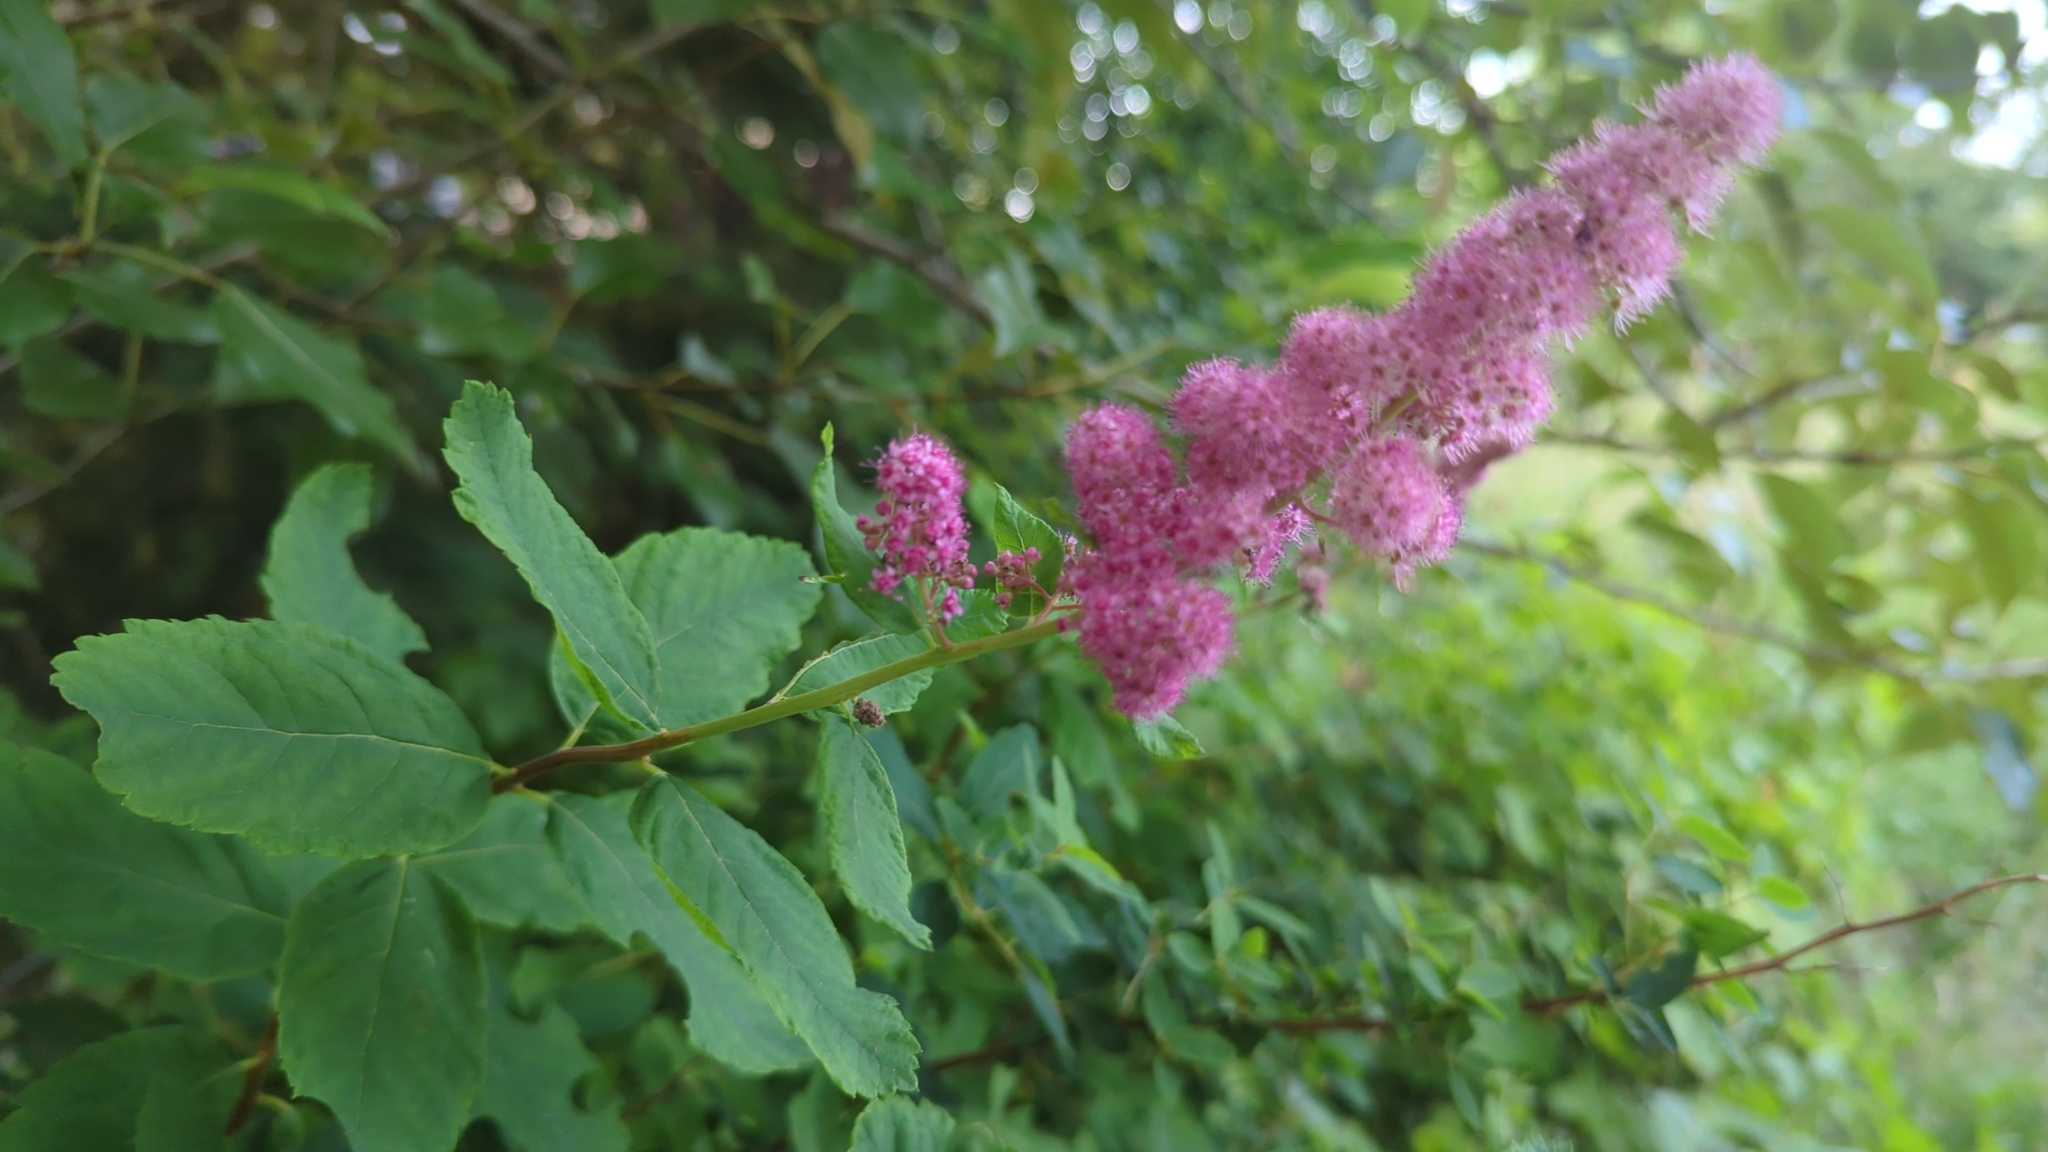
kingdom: Plantae
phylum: Tracheophyta
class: Magnoliopsida
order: Rosales
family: Rosaceae
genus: Spiraea
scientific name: Spiraea douglasii
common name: Steeplebush
